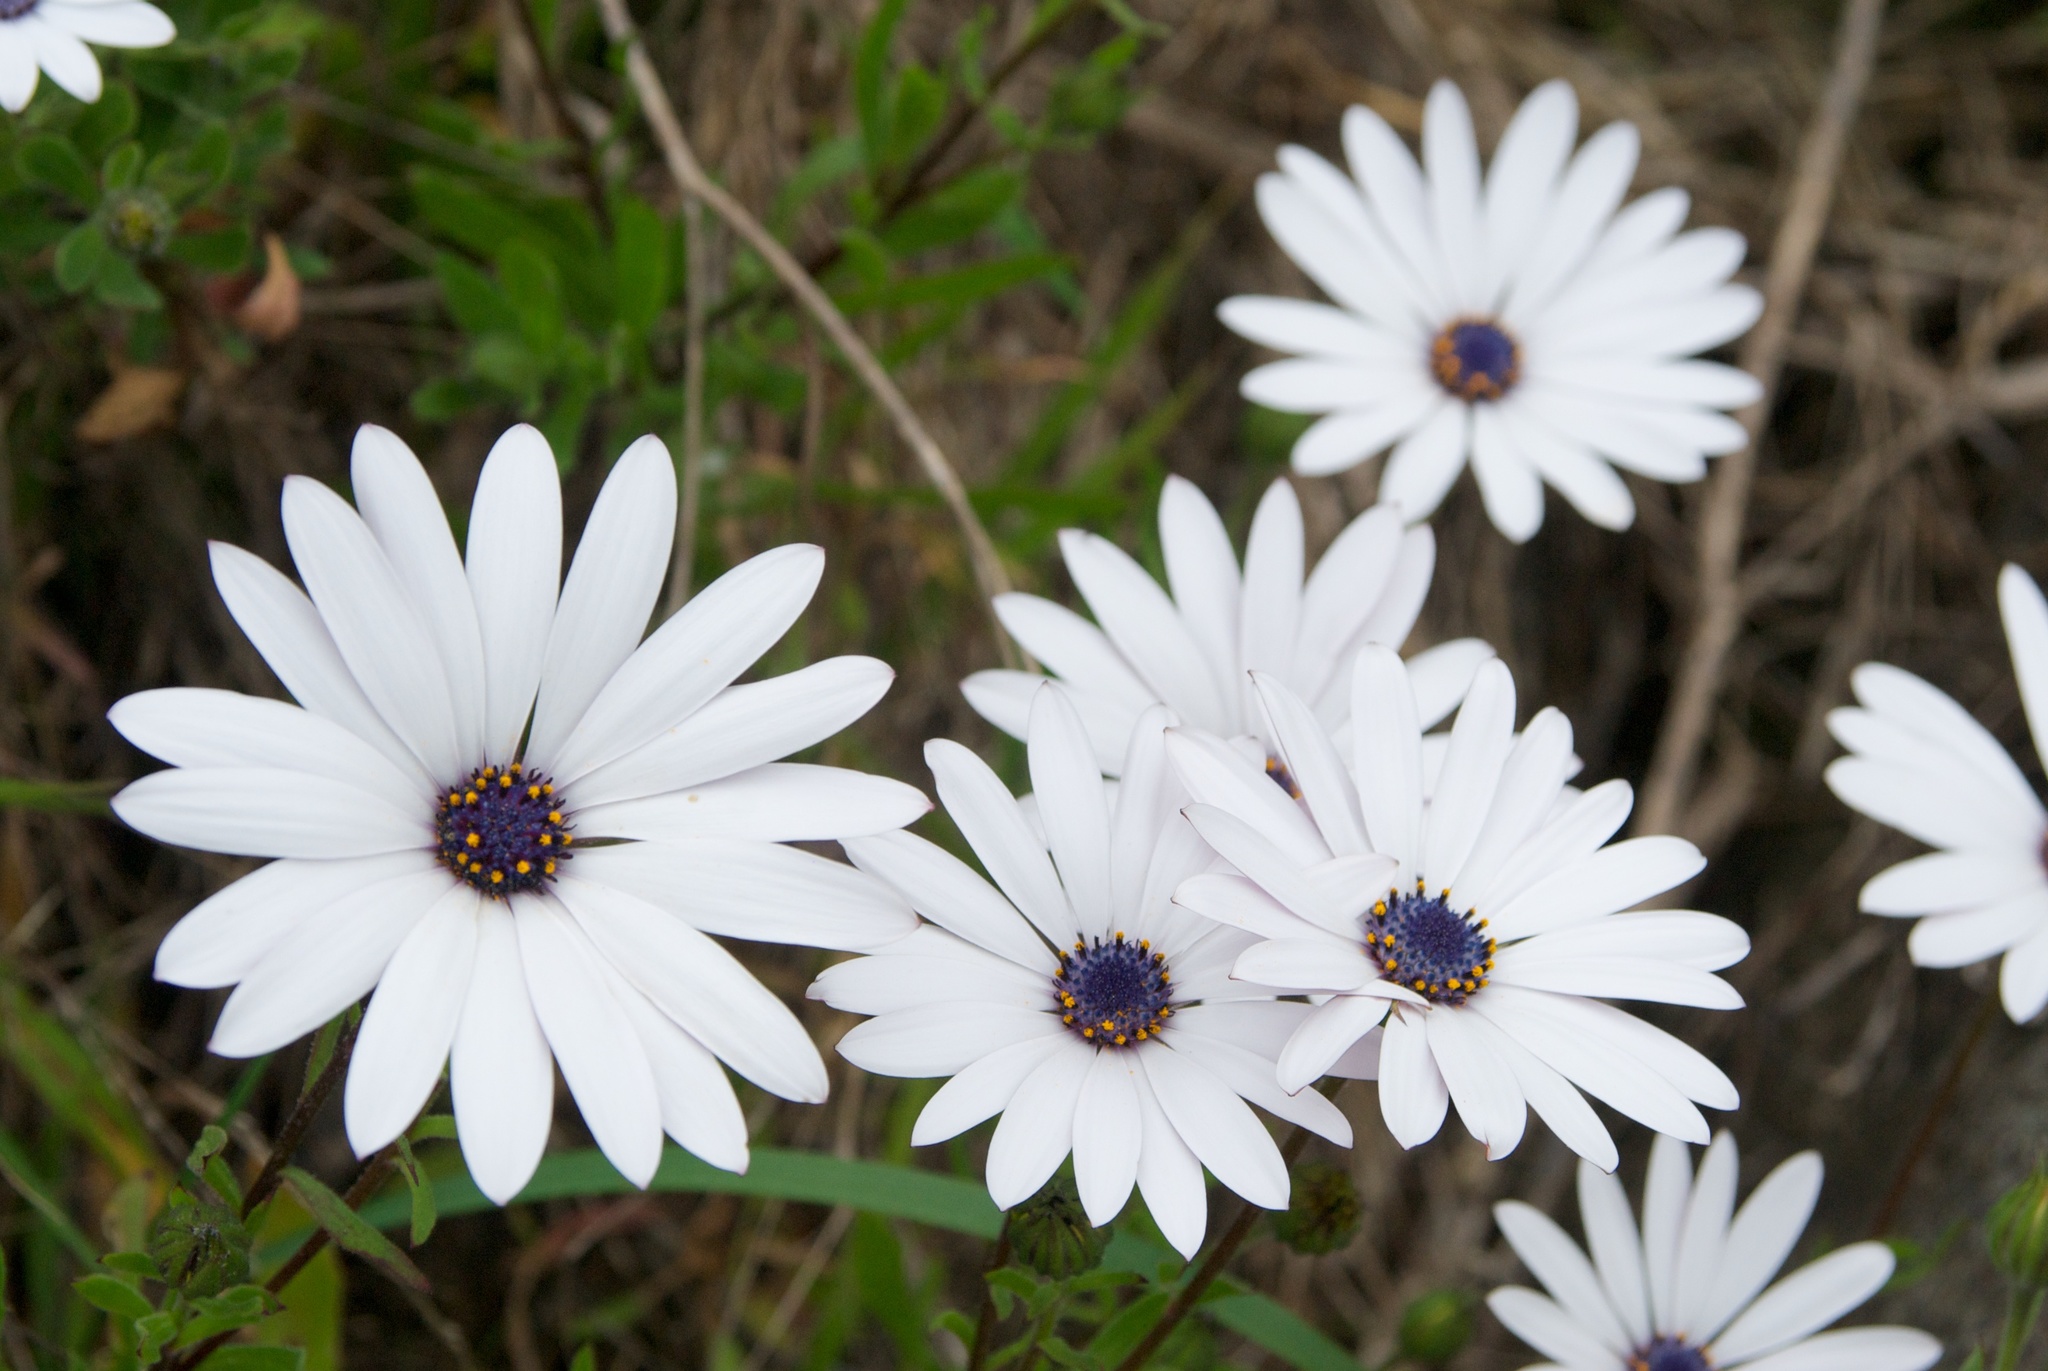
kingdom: Plantae
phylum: Tracheophyta
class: Magnoliopsida
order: Asterales
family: Asteraceae
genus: Dimorphotheca
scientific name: Dimorphotheca fruticosa
